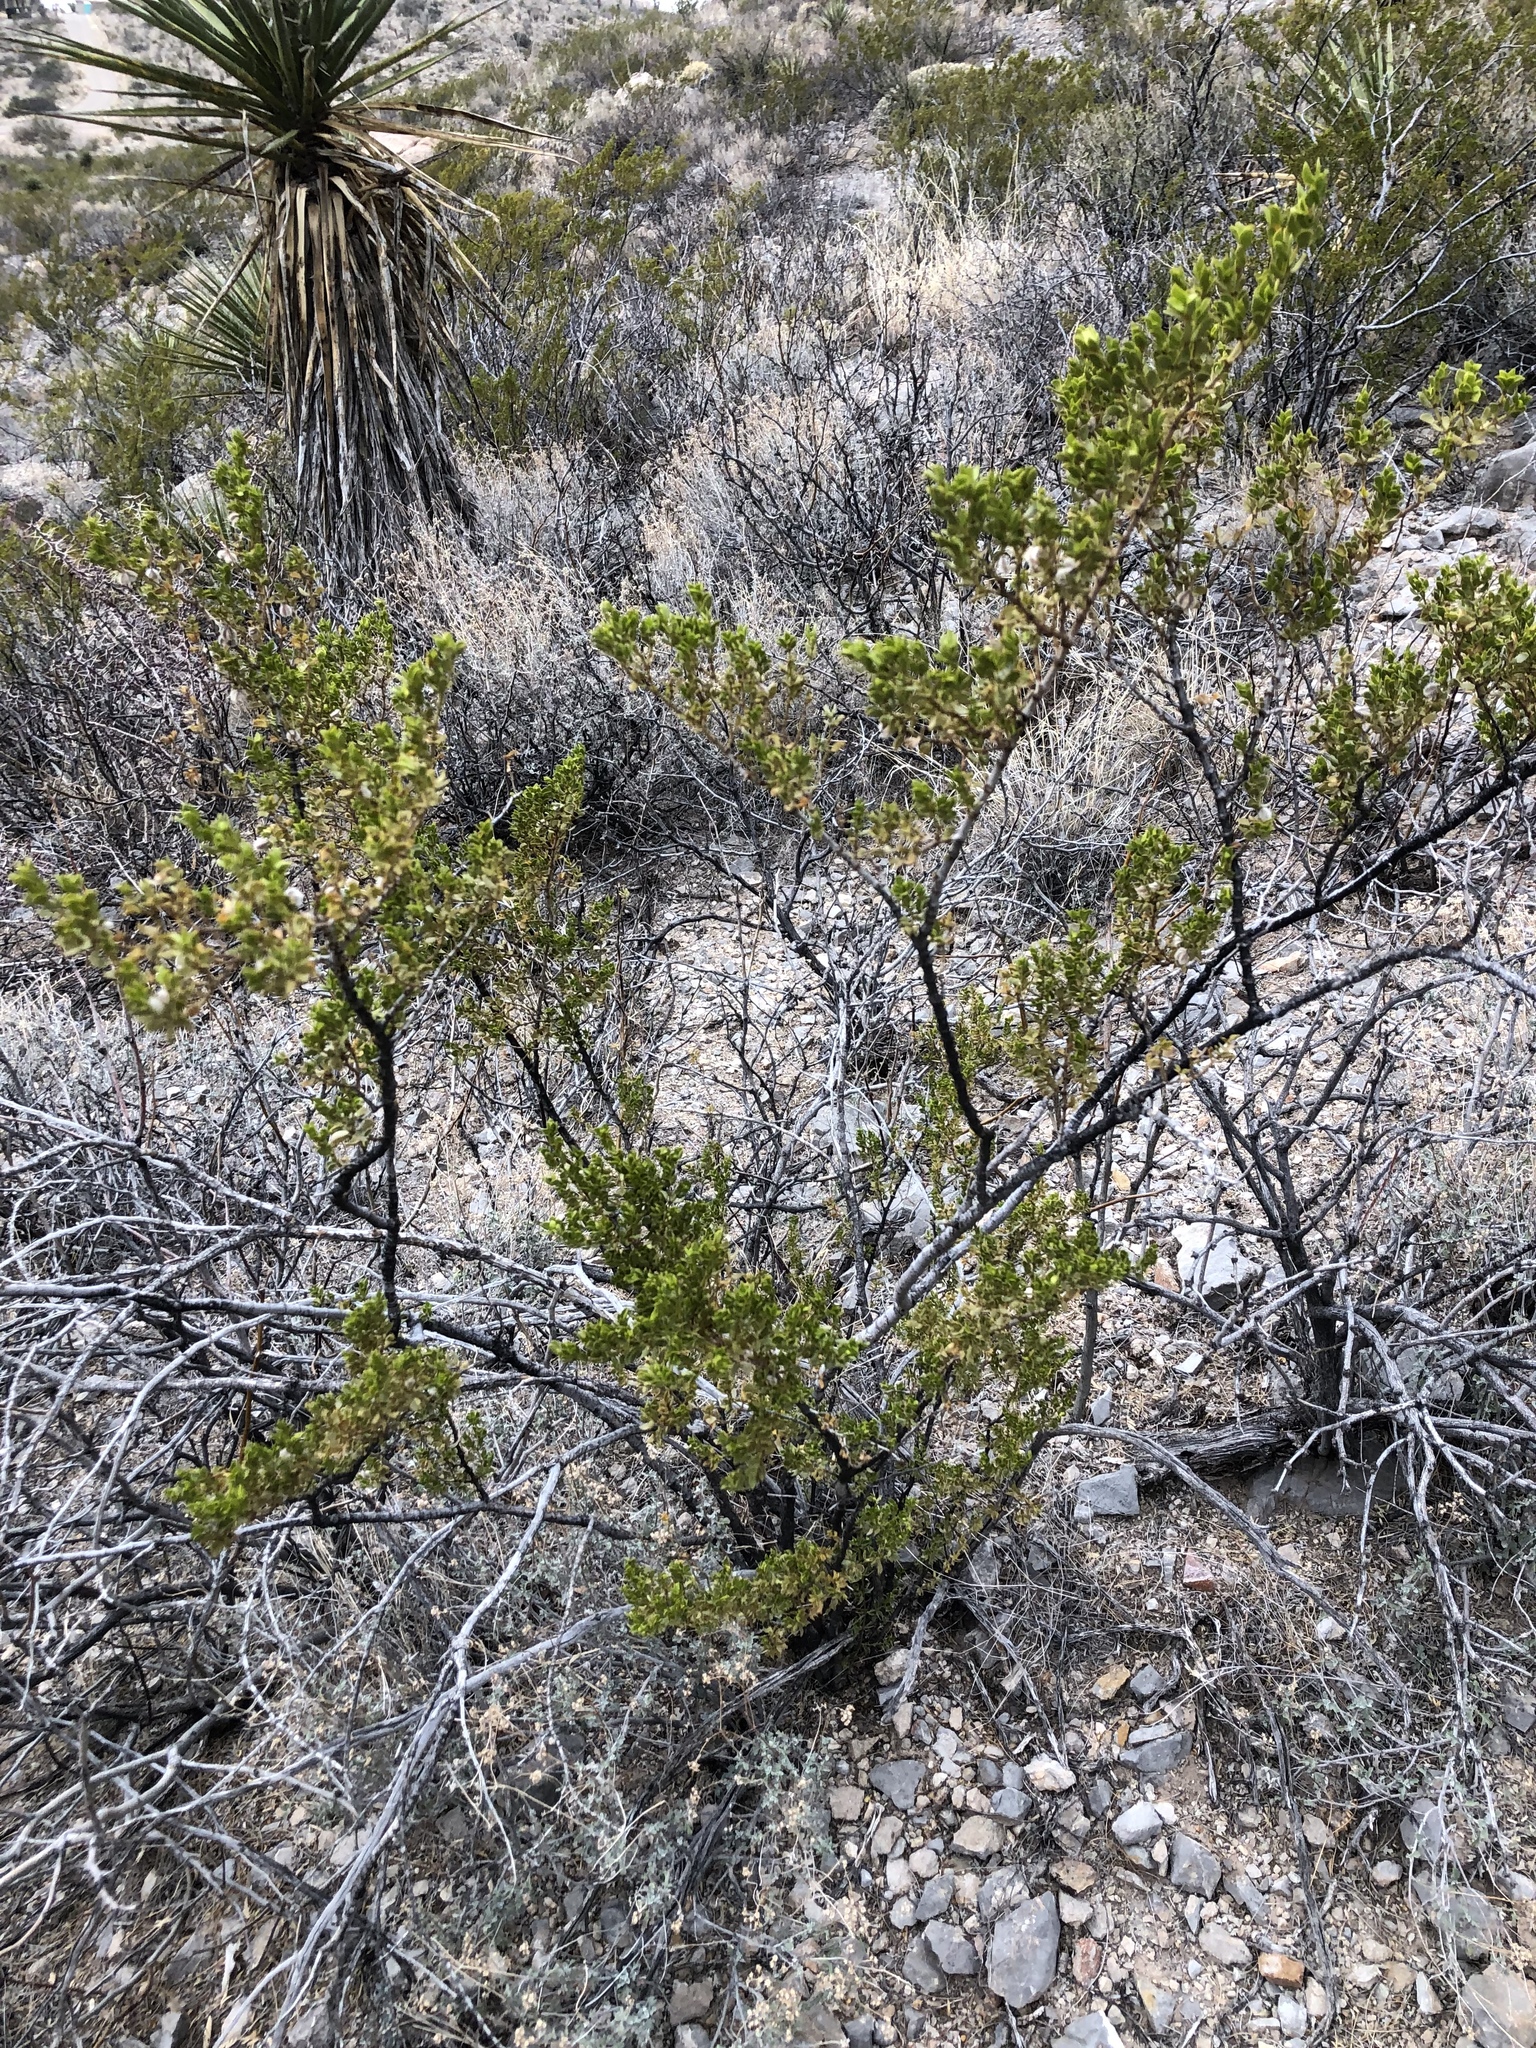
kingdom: Plantae
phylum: Tracheophyta
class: Magnoliopsida
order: Zygophyllales
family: Zygophyllaceae
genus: Larrea
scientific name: Larrea tridentata
